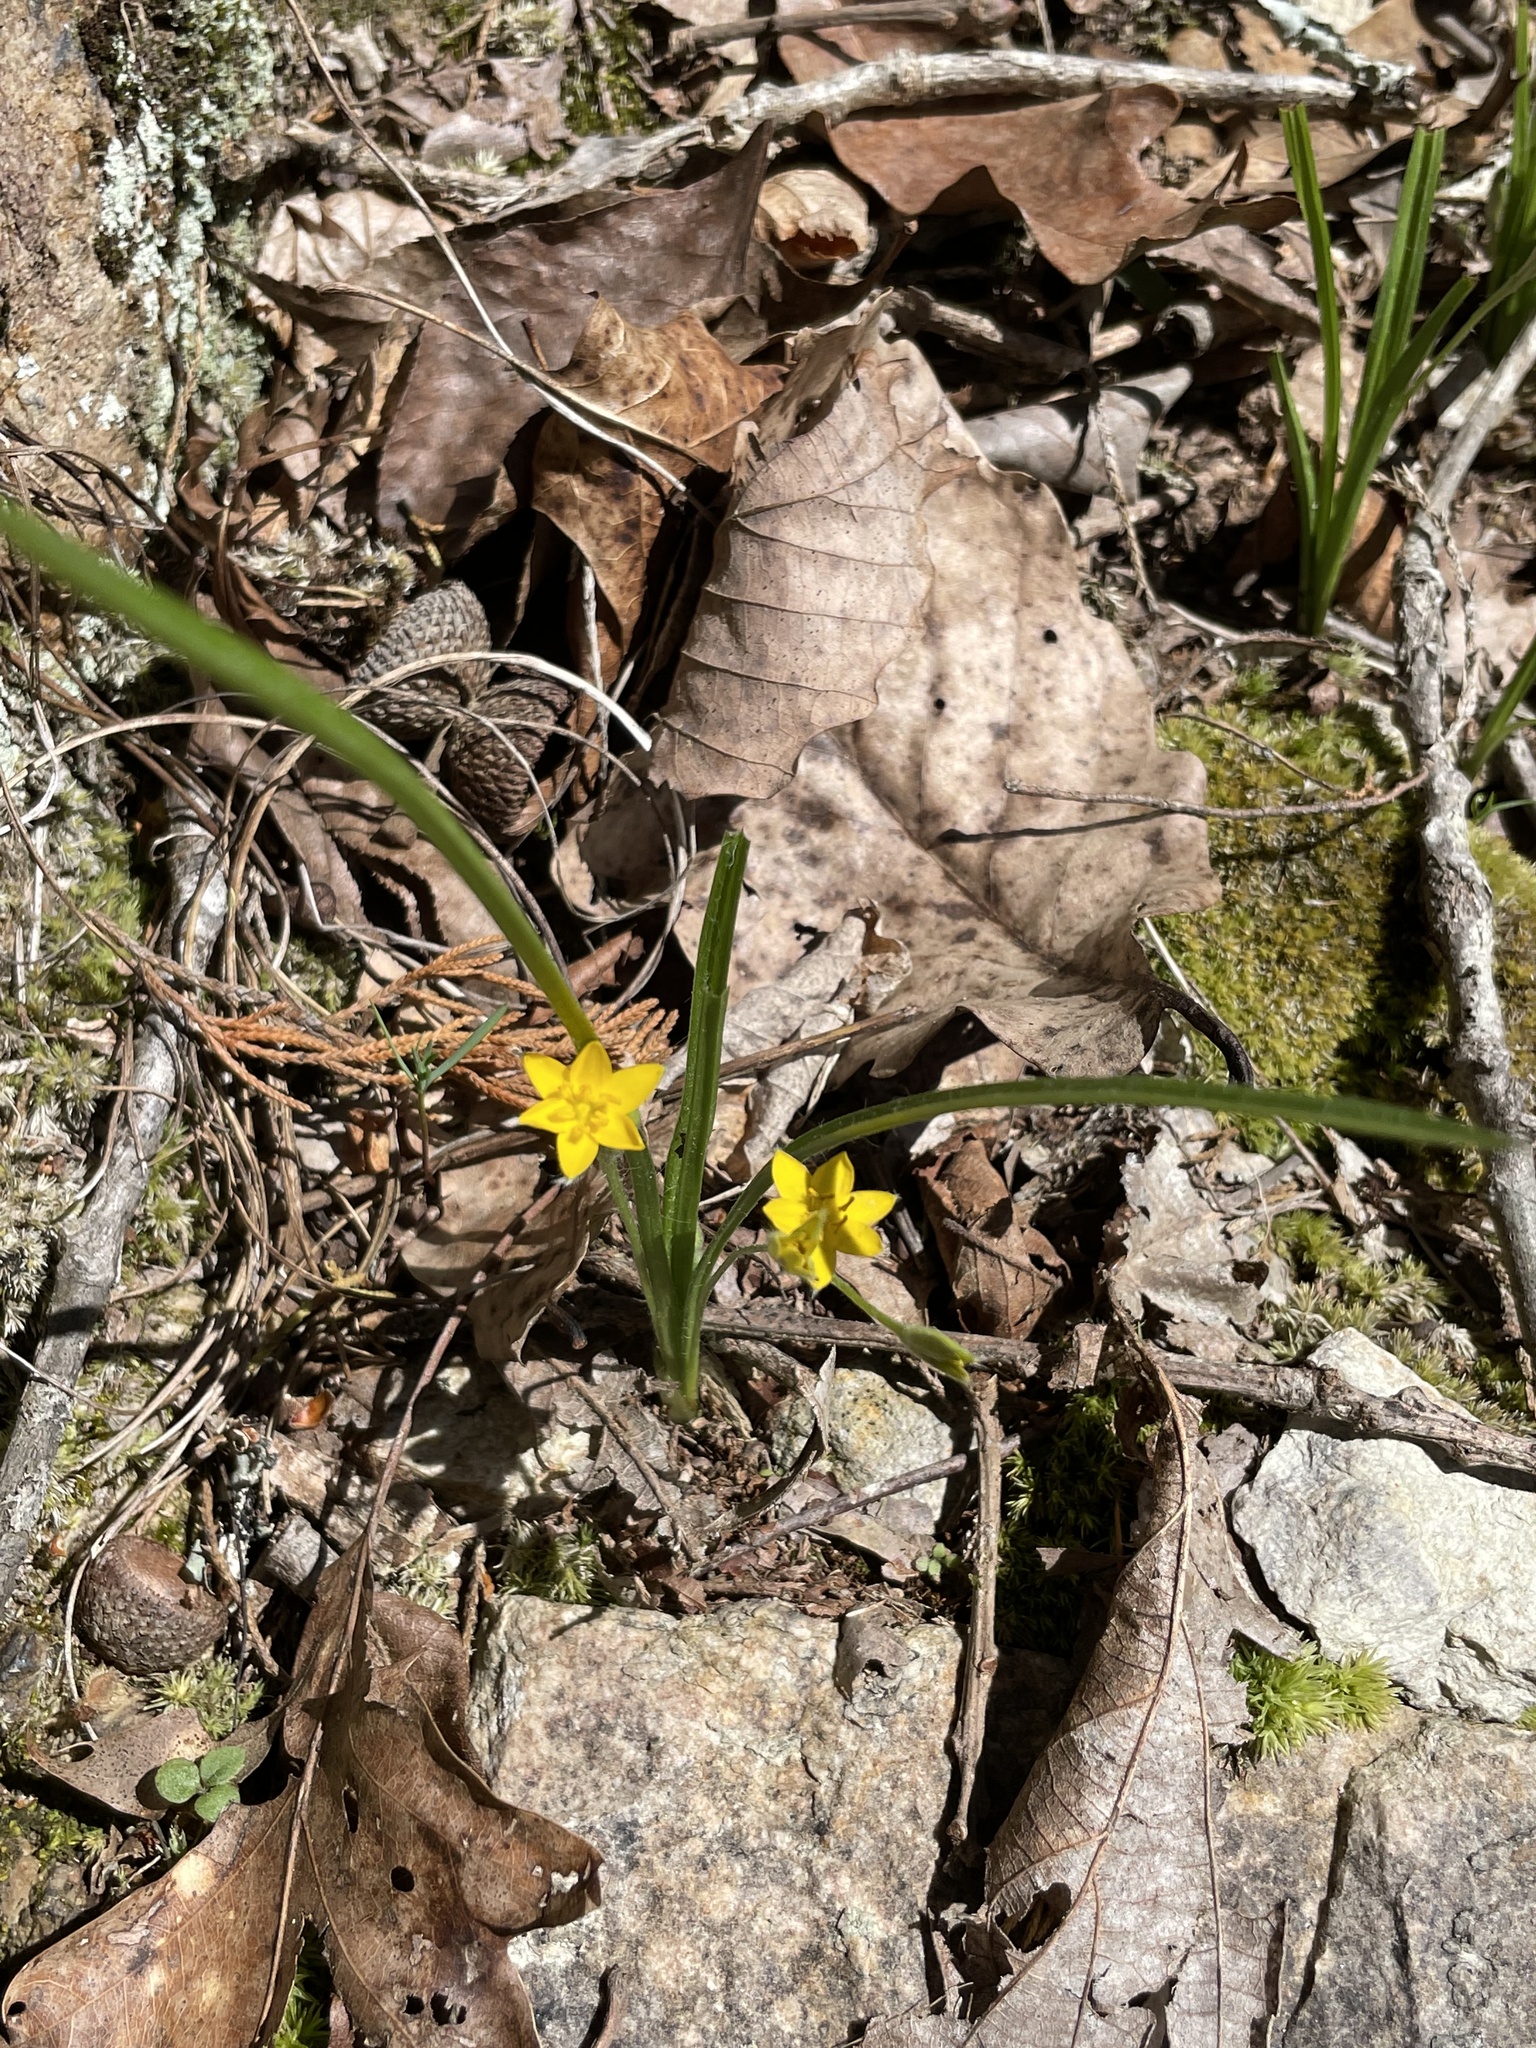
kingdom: Plantae
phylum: Tracheophyta
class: Liliopsida
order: Asparagales
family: Hypoxidaceae
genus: Hypoxis
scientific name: Hypoxis hirsuta
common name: Common goldstar
